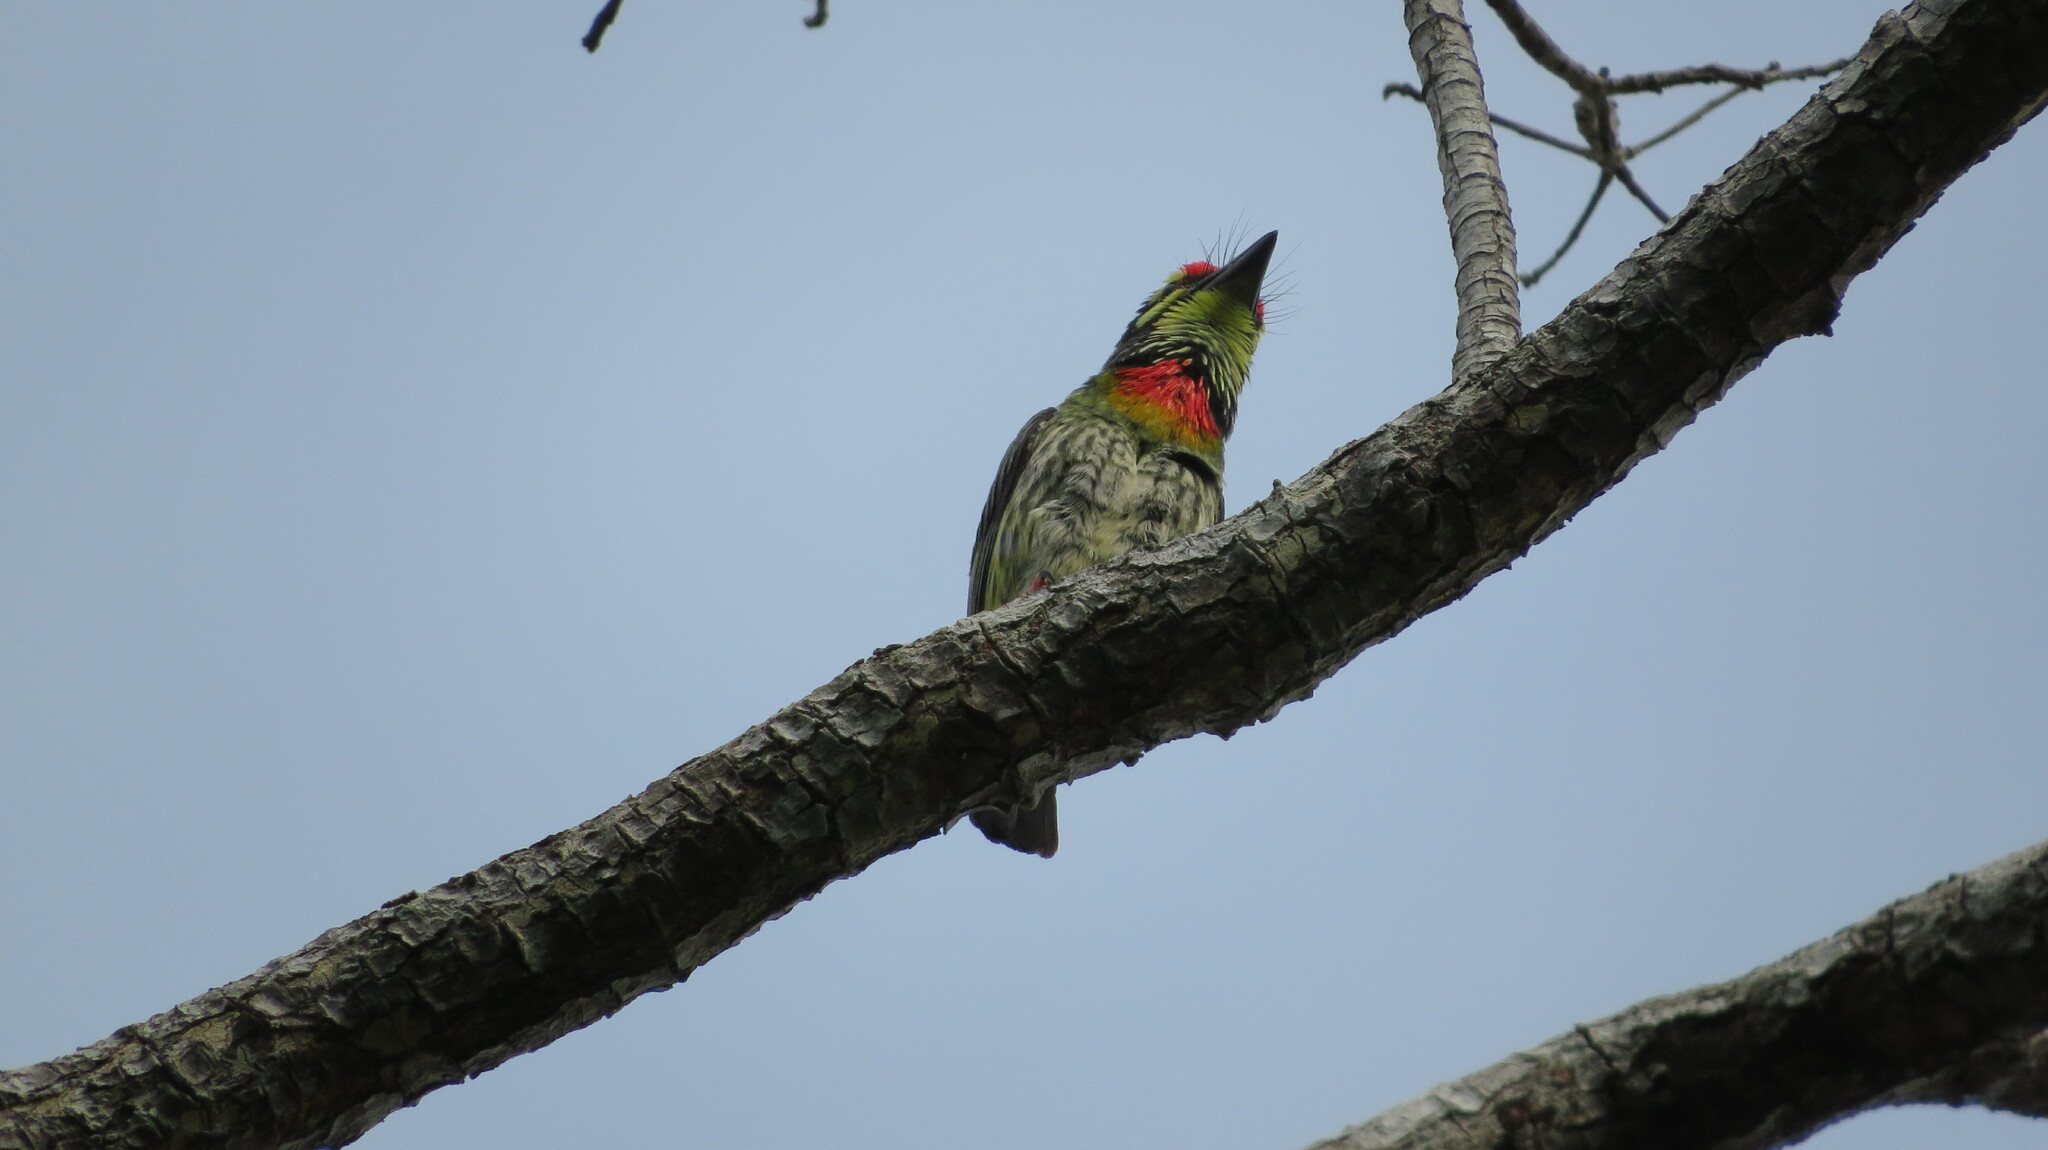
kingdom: Animalia
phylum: Chordata
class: Aves
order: Piciformes
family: Megalaimidae
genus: Psilopogon
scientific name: Psilopogon haemacephalus
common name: Coppersmith barbet
